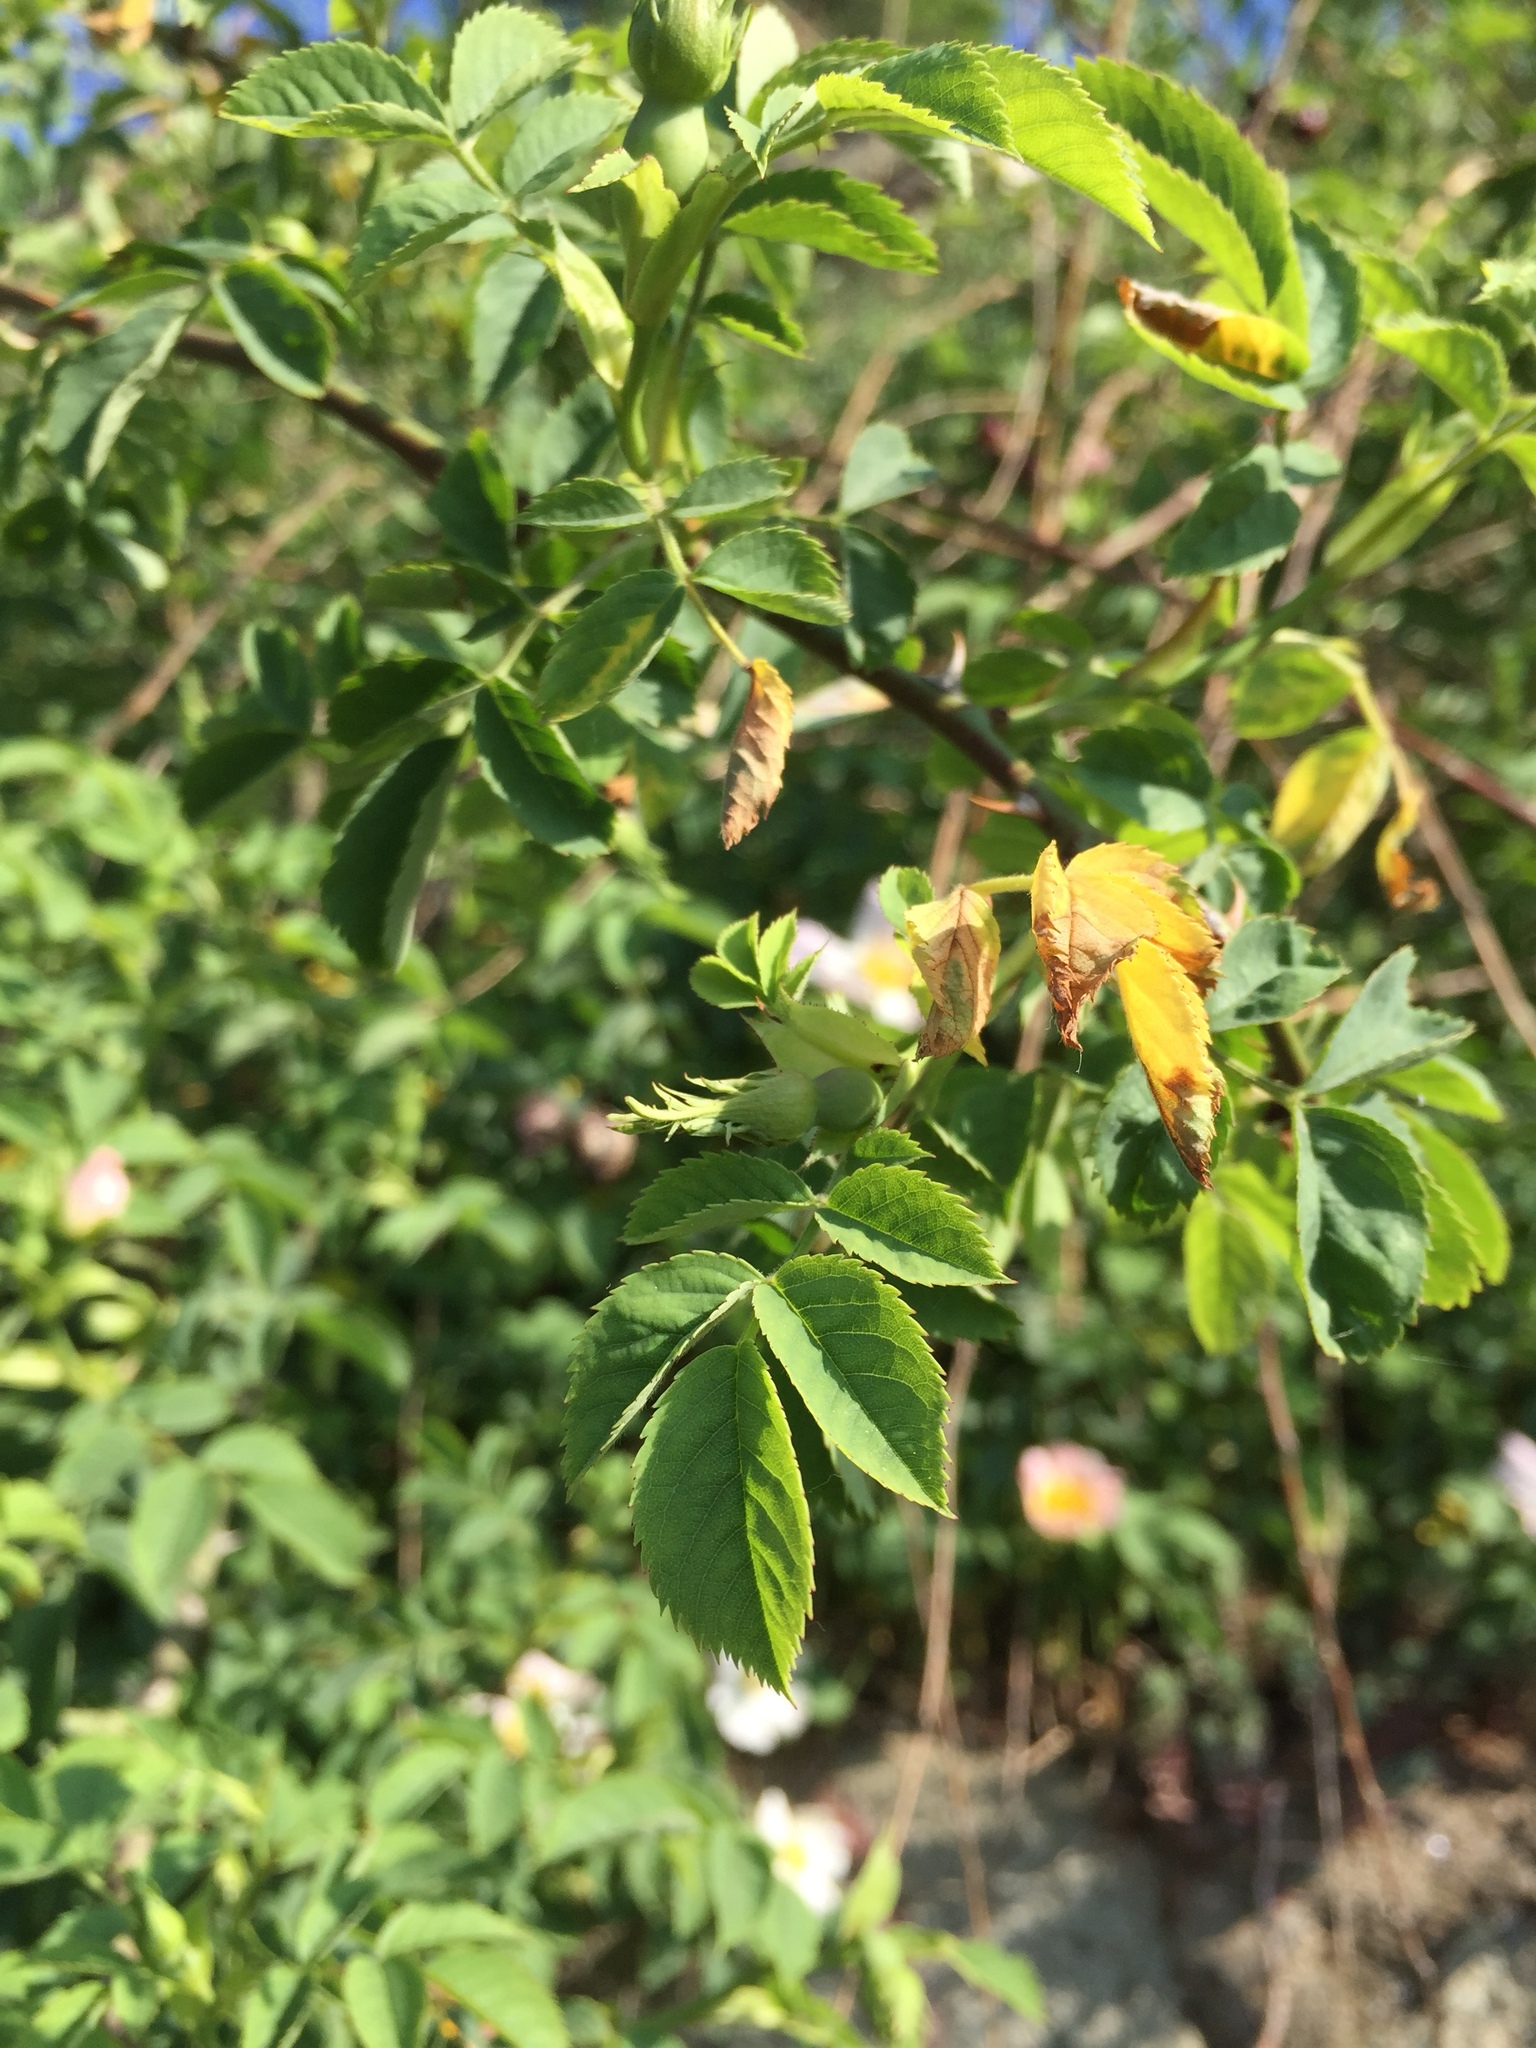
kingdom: Plantae
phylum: Tracheophyta
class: Magnoliopsida
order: Rosales
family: Rosaceae
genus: Rosa
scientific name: Rosa canina
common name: Dog rose
